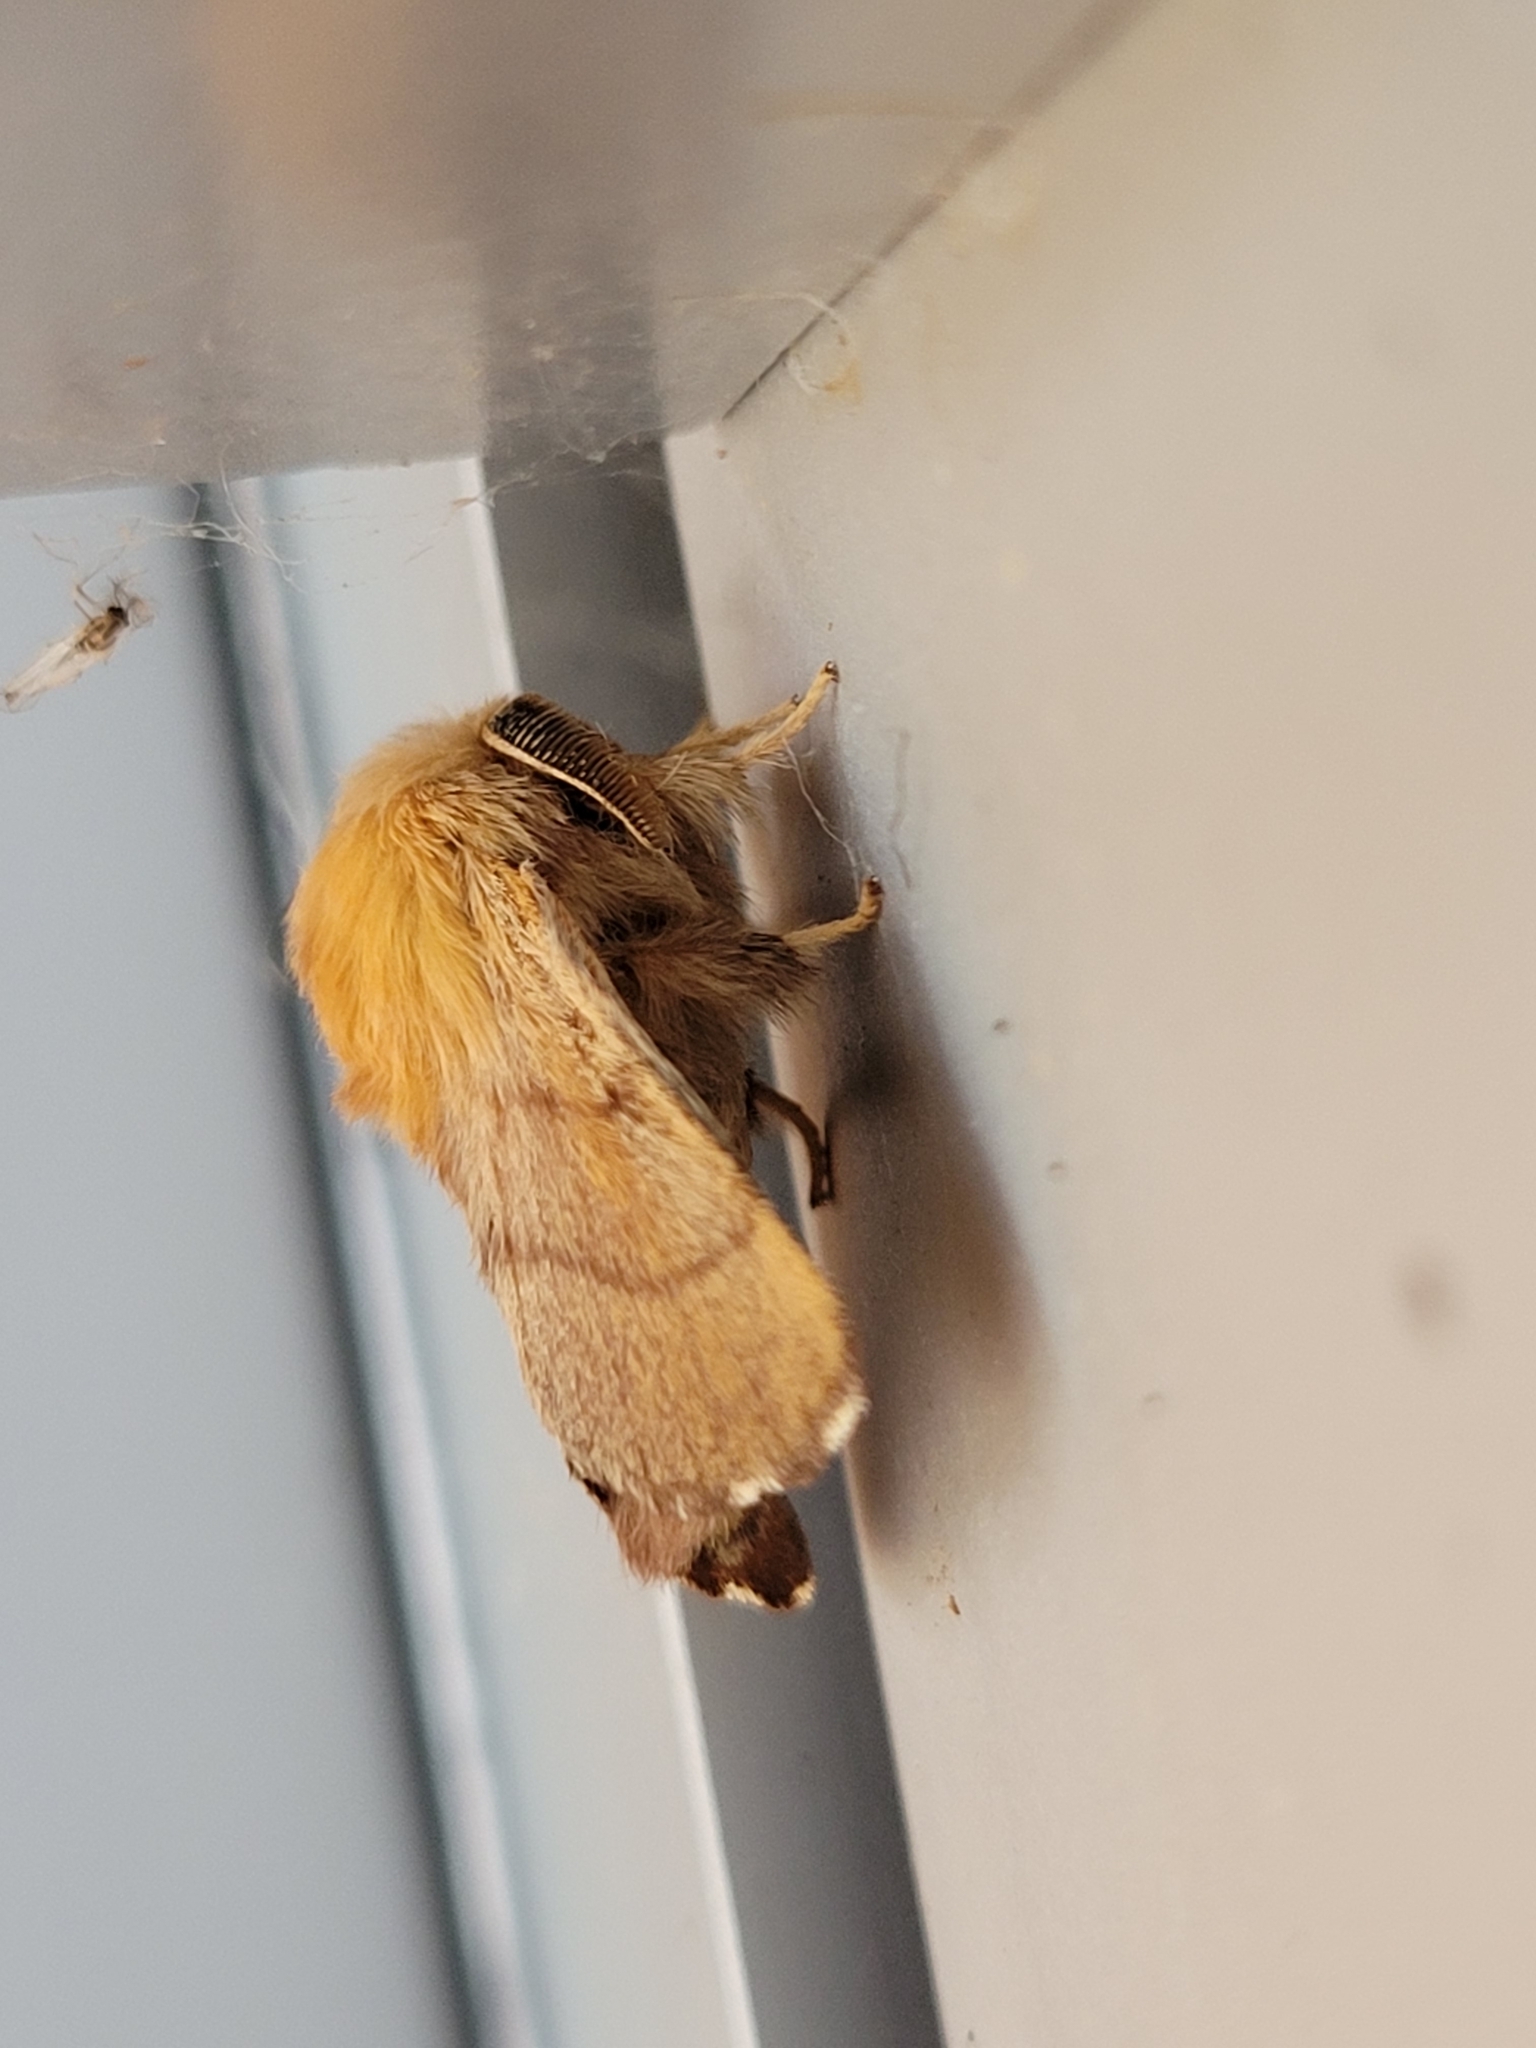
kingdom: Animalia
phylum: Arthropoda
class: Insecta
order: Lepidoptera
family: Lasiocampidae
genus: Malacosoma
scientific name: Malacosoma disstria
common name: Forest tent caterpillar
